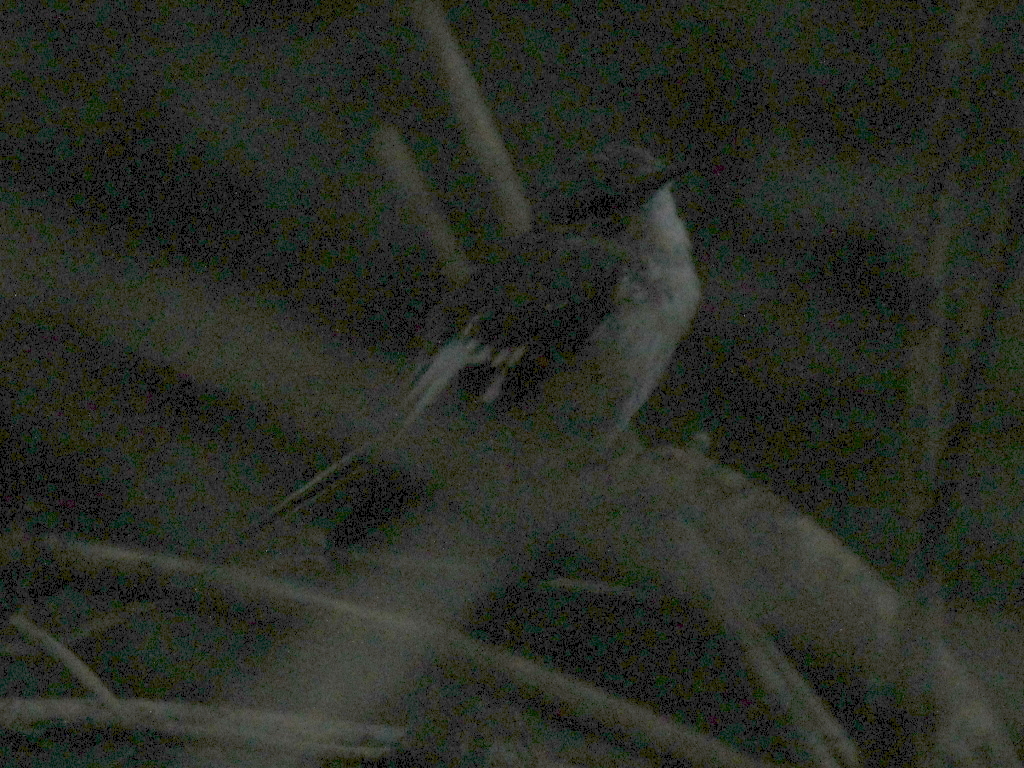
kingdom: Animalia
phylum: Chordata
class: Aves
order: Passeriformes
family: Muscicapidae
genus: Ficedula
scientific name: Ficedula albicollis
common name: Collared flycatcher
